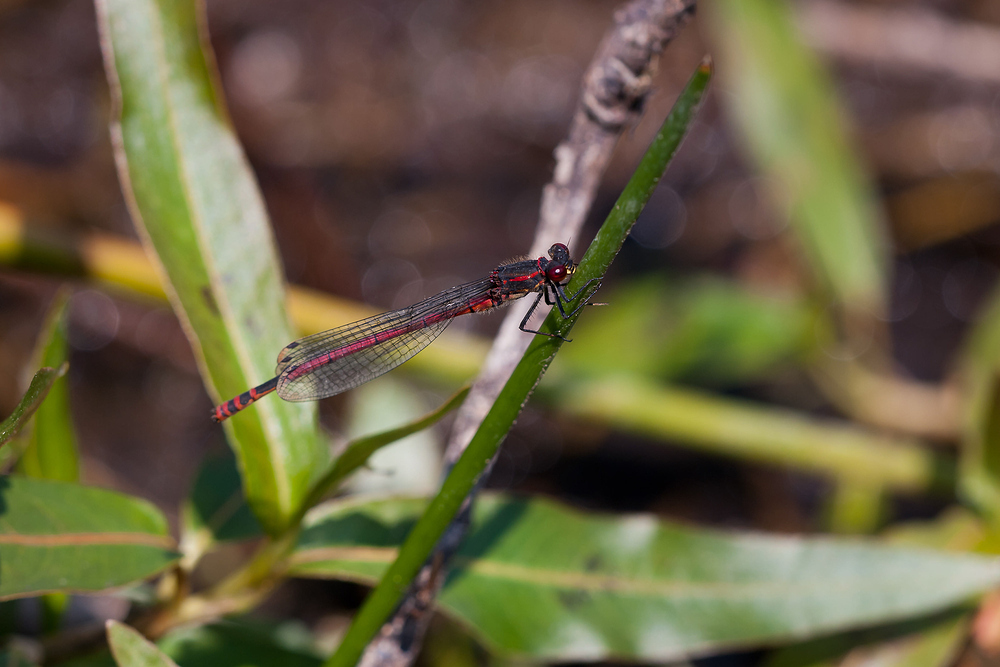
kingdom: Animalia
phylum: Arthropoda
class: Insecta
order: Odonata
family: Coenagrionidae
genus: Pyrrhosoma
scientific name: Pyrrhosoma nymphula
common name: Large red damsel
